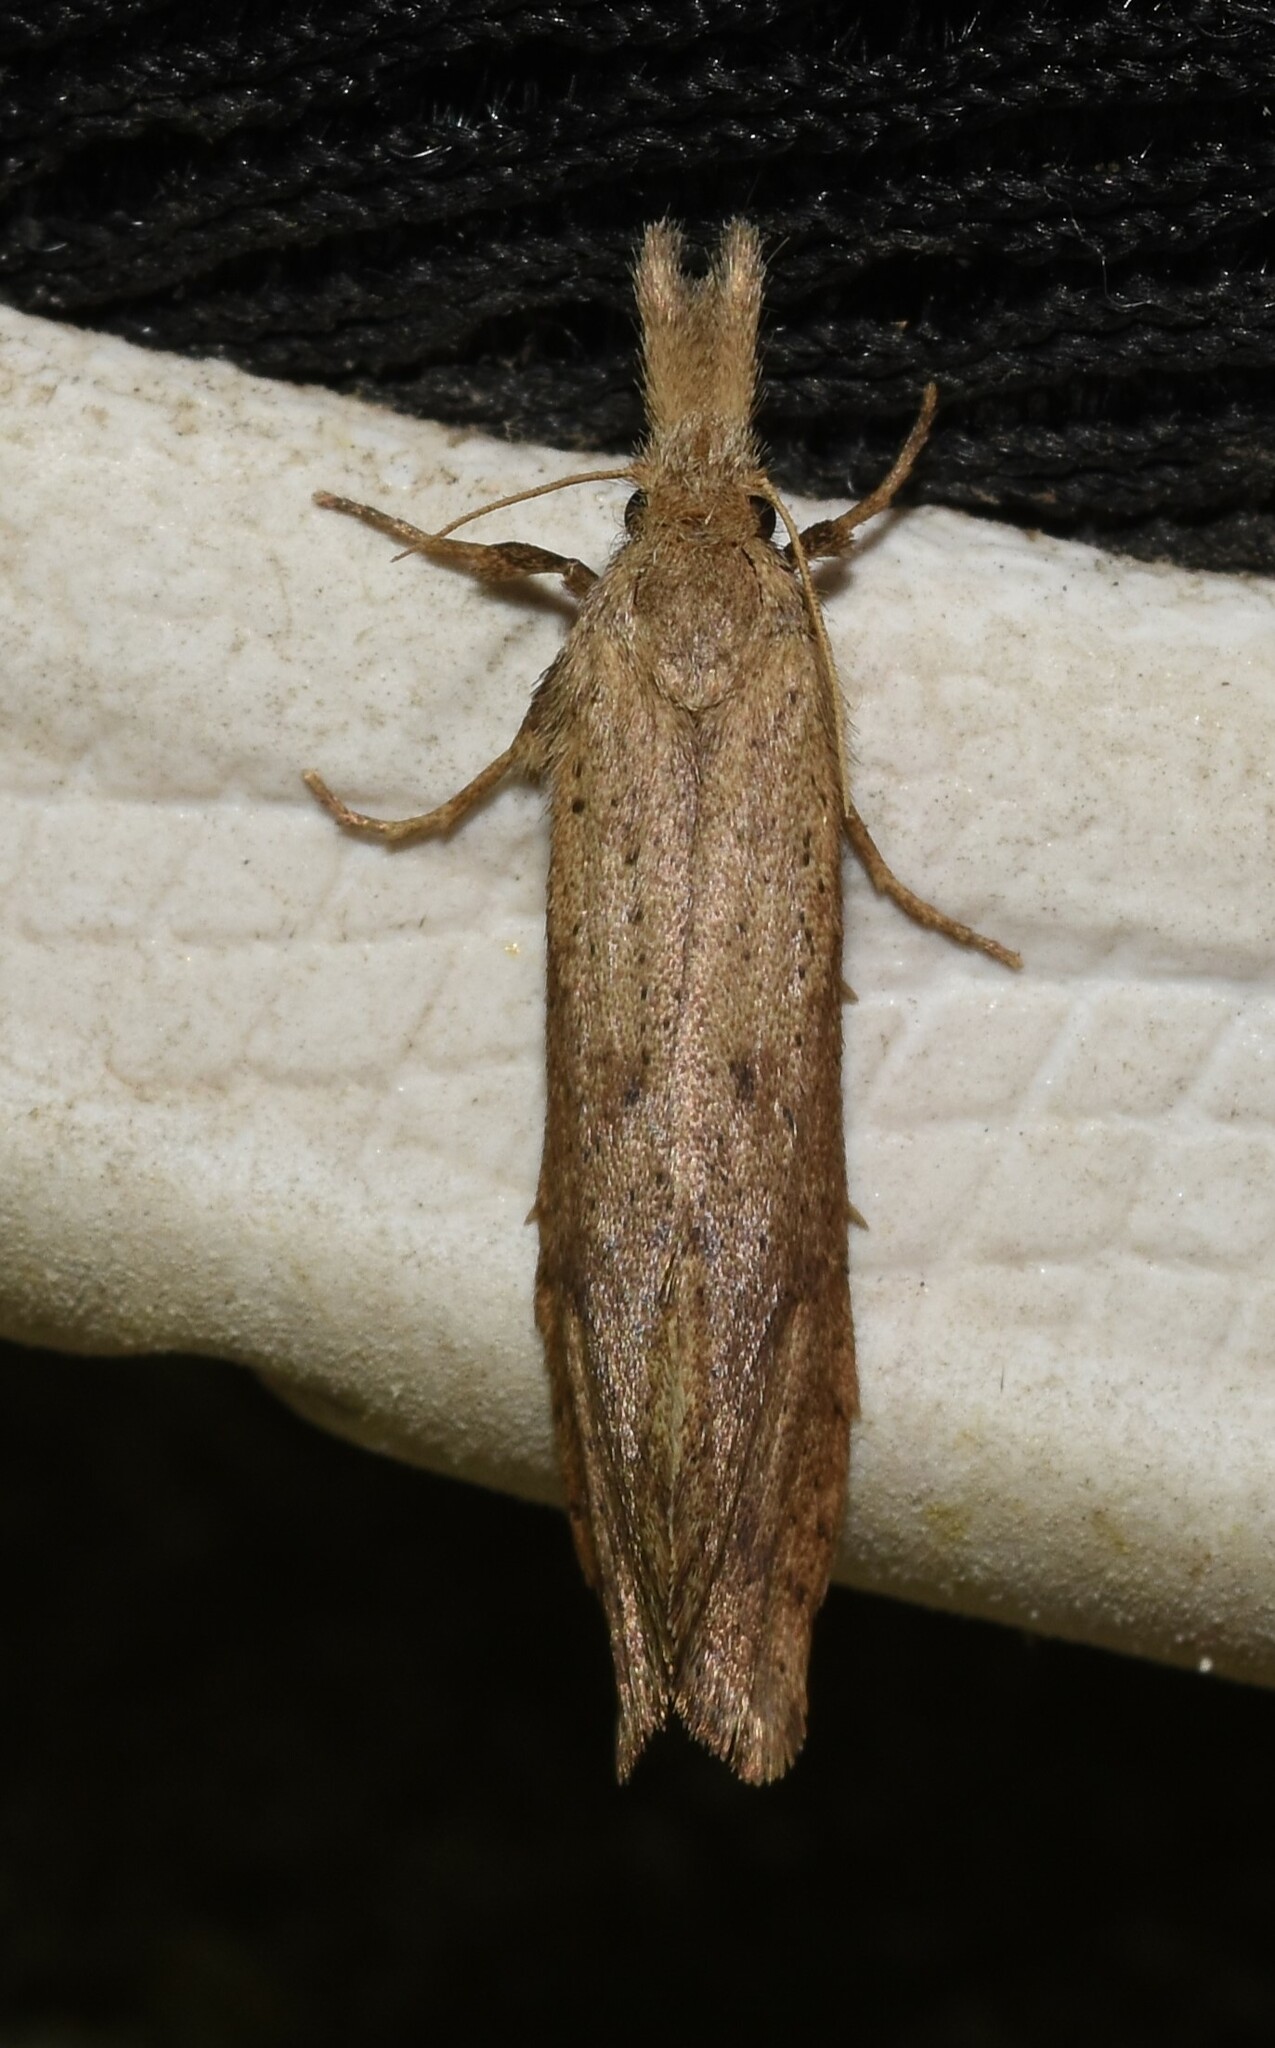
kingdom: Animalia
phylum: Arthropoda
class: Insecta
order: Lepidoptera
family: Tineidae
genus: Acrolophus
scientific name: Acrolophus mortipennella
